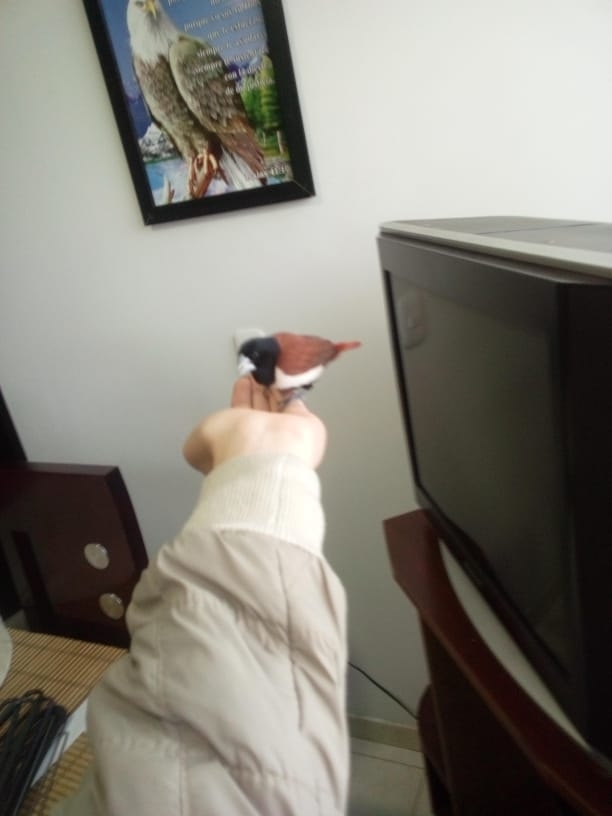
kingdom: Animalia
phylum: Chordata
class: Aves
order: Passeriformes
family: Estrildidae
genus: Lonchura
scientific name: Lonchura malacca
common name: Tricolored munia
